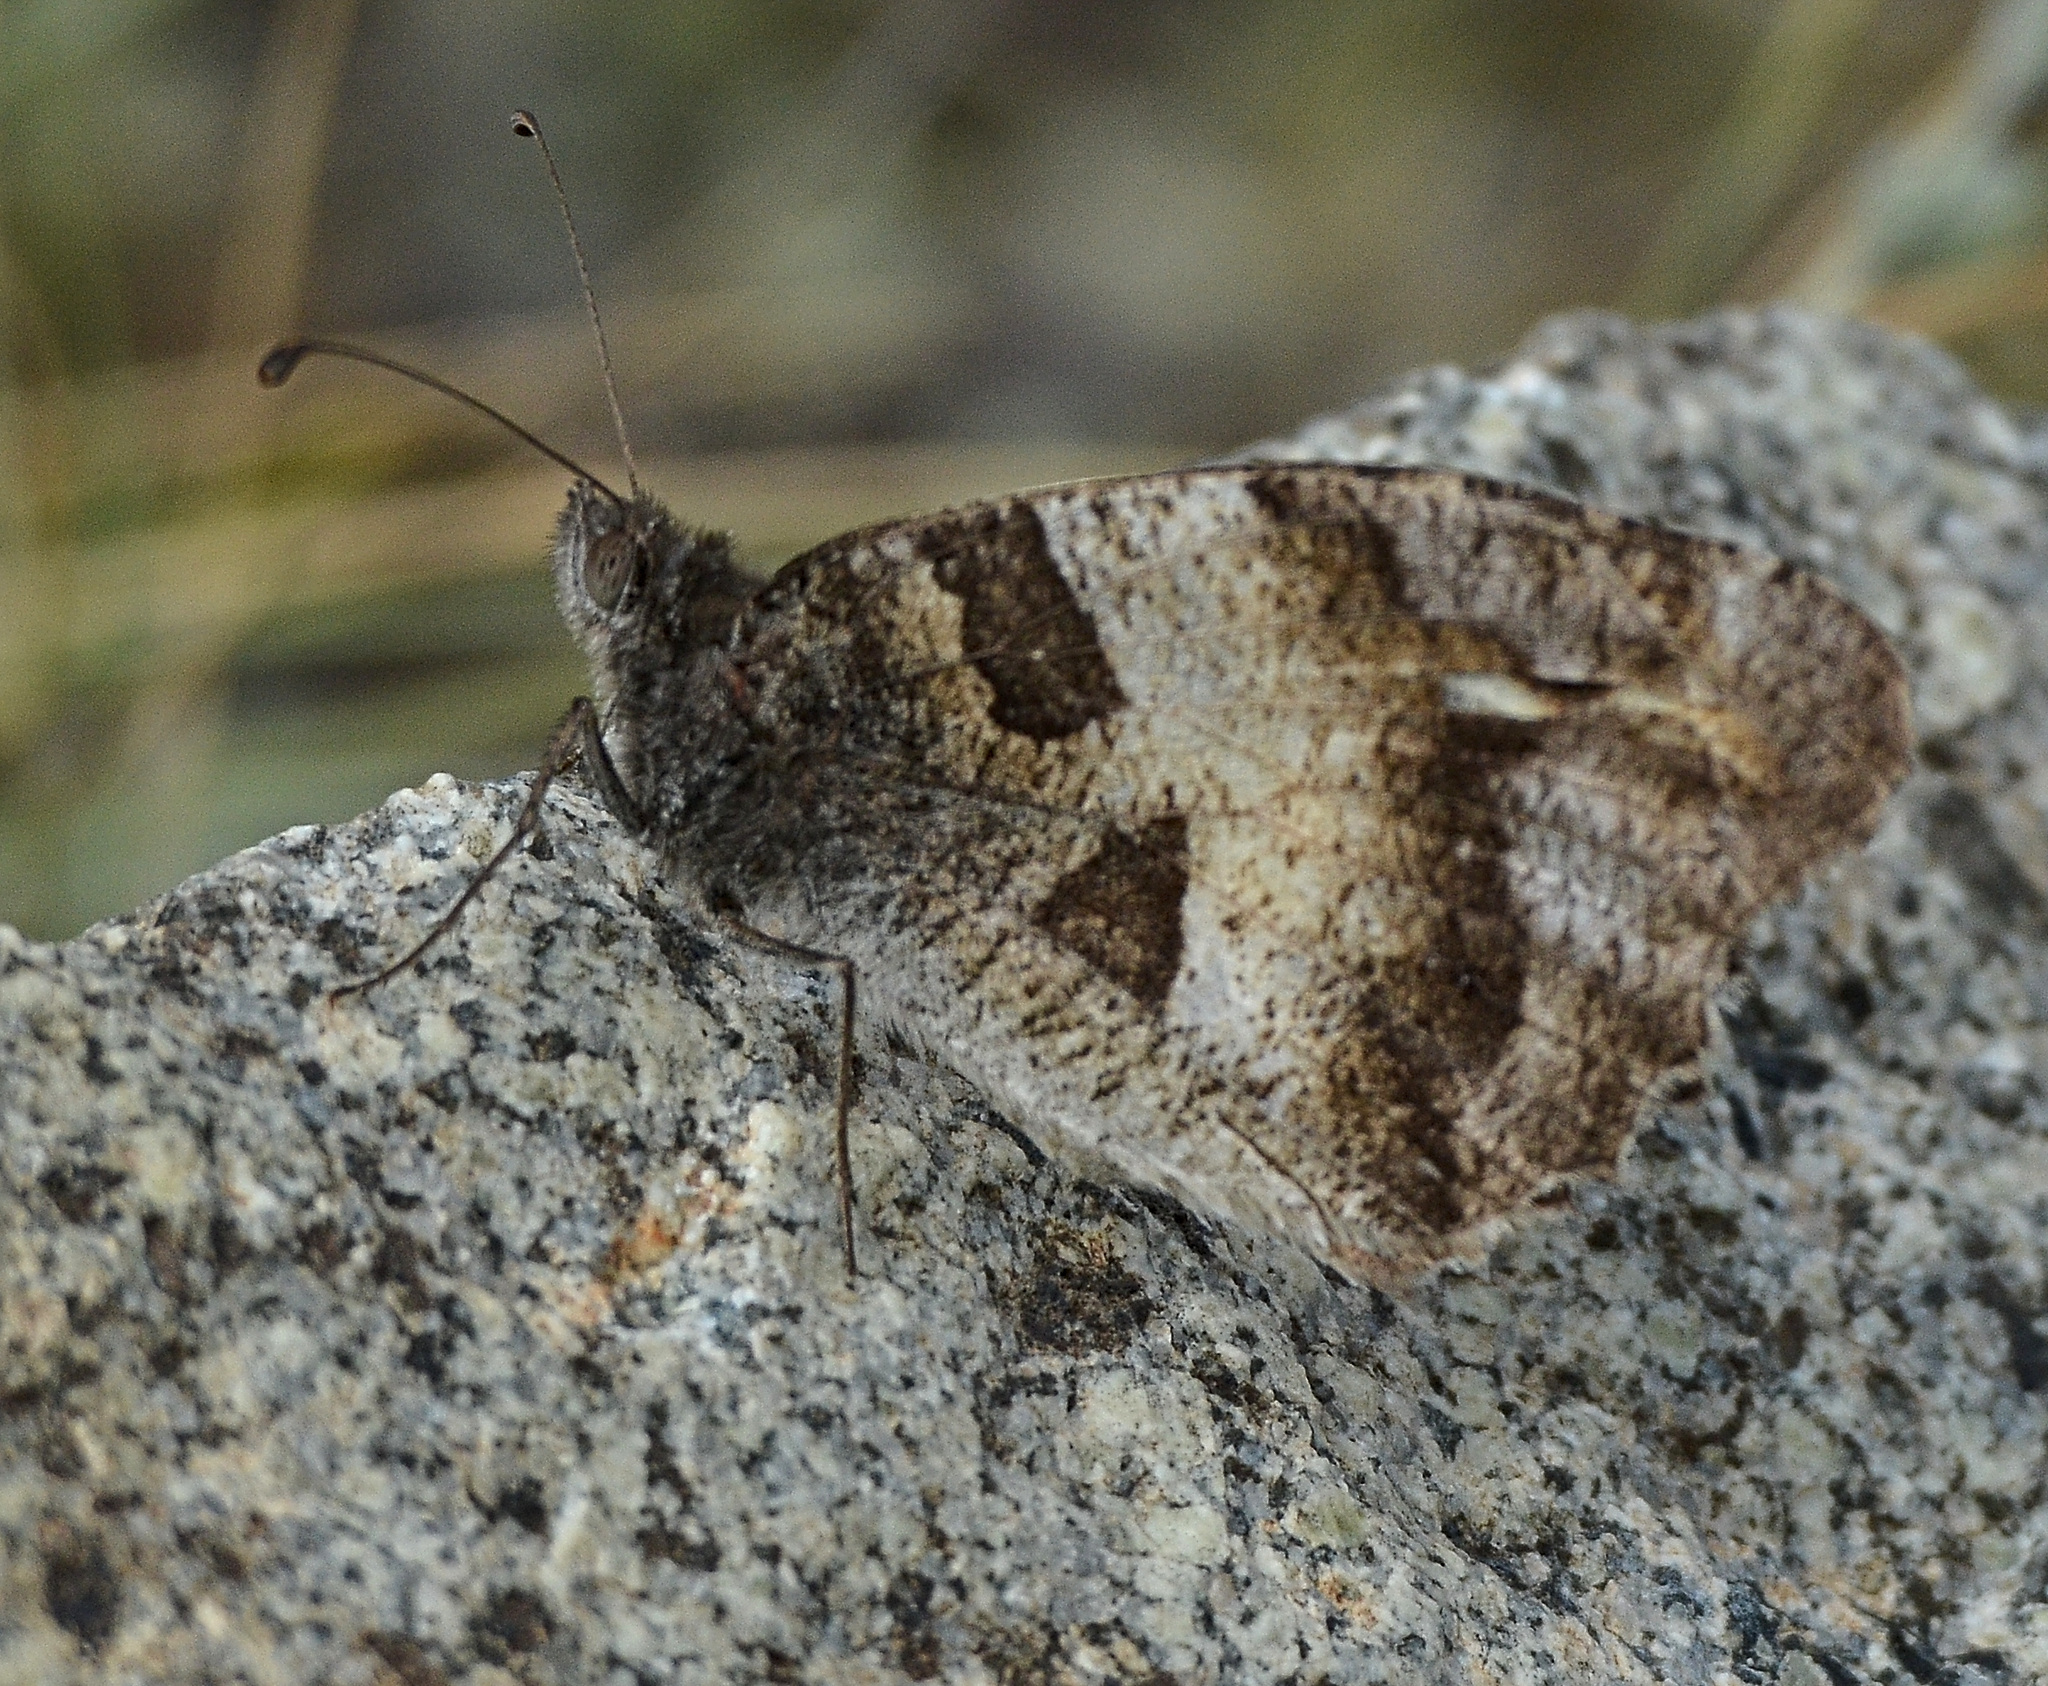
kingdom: Animalia
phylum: Arthropoda
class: Insecta
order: Lepidoptera
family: Nymphalidae
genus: Satyrus
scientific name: Satyrus briseis
